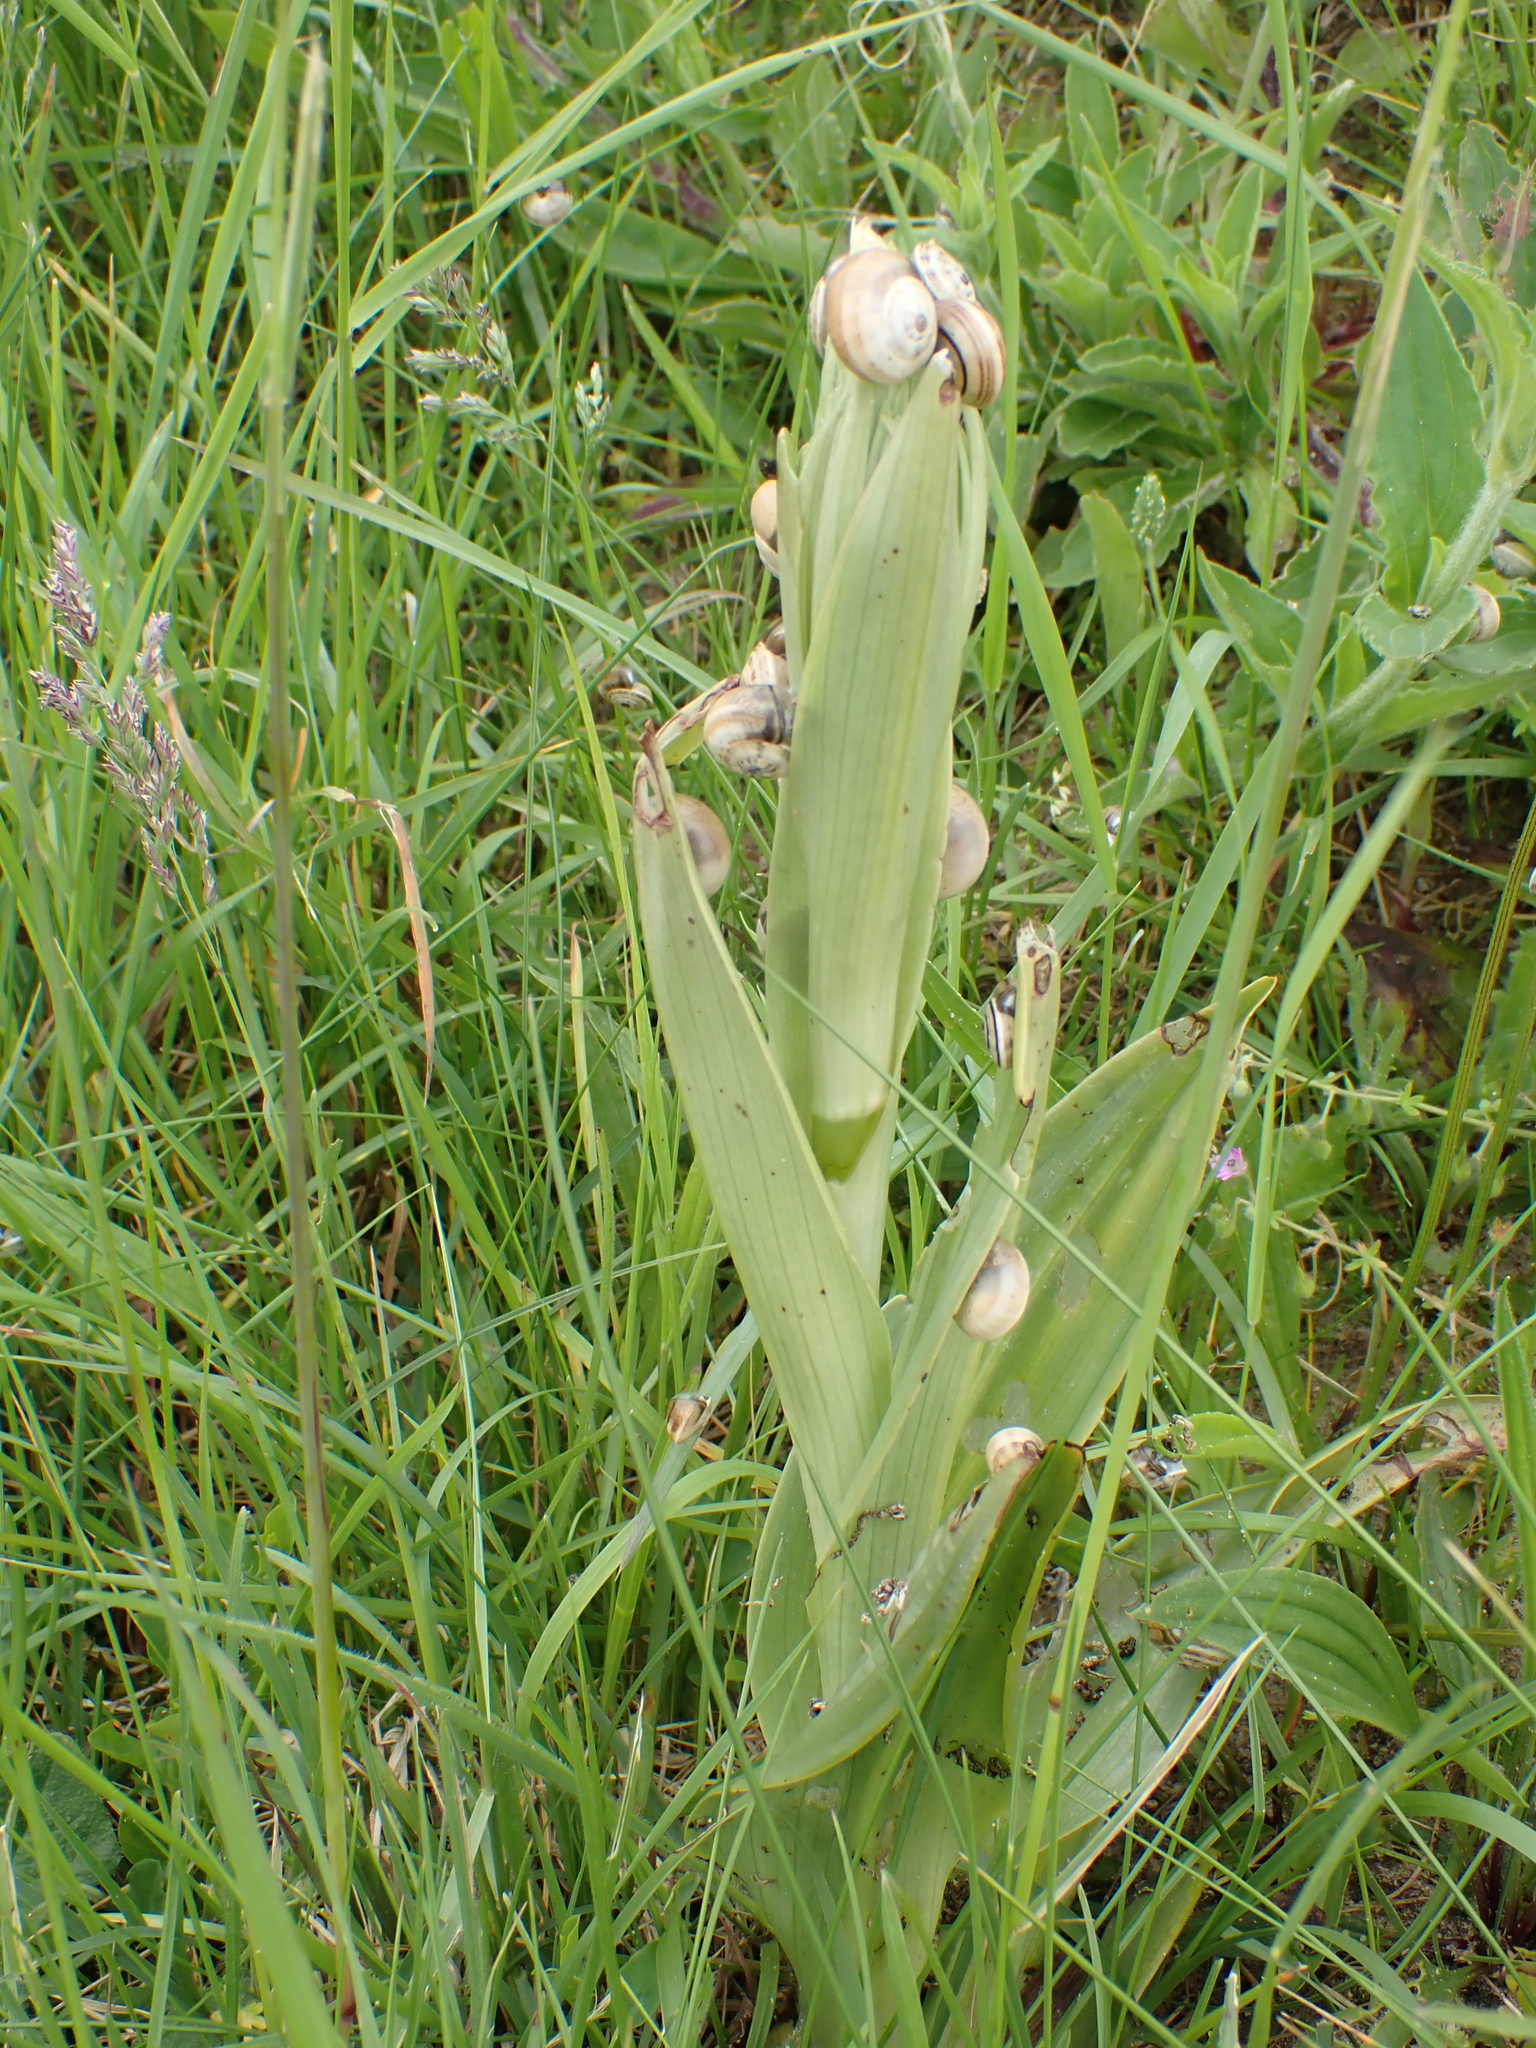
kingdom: Plantae
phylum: Tracheophyta
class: Liliopsida
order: Asparagales
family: Orchidaceae
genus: Himantoglossum
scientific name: Himantoglossum hircinum
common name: Lizard orchid
